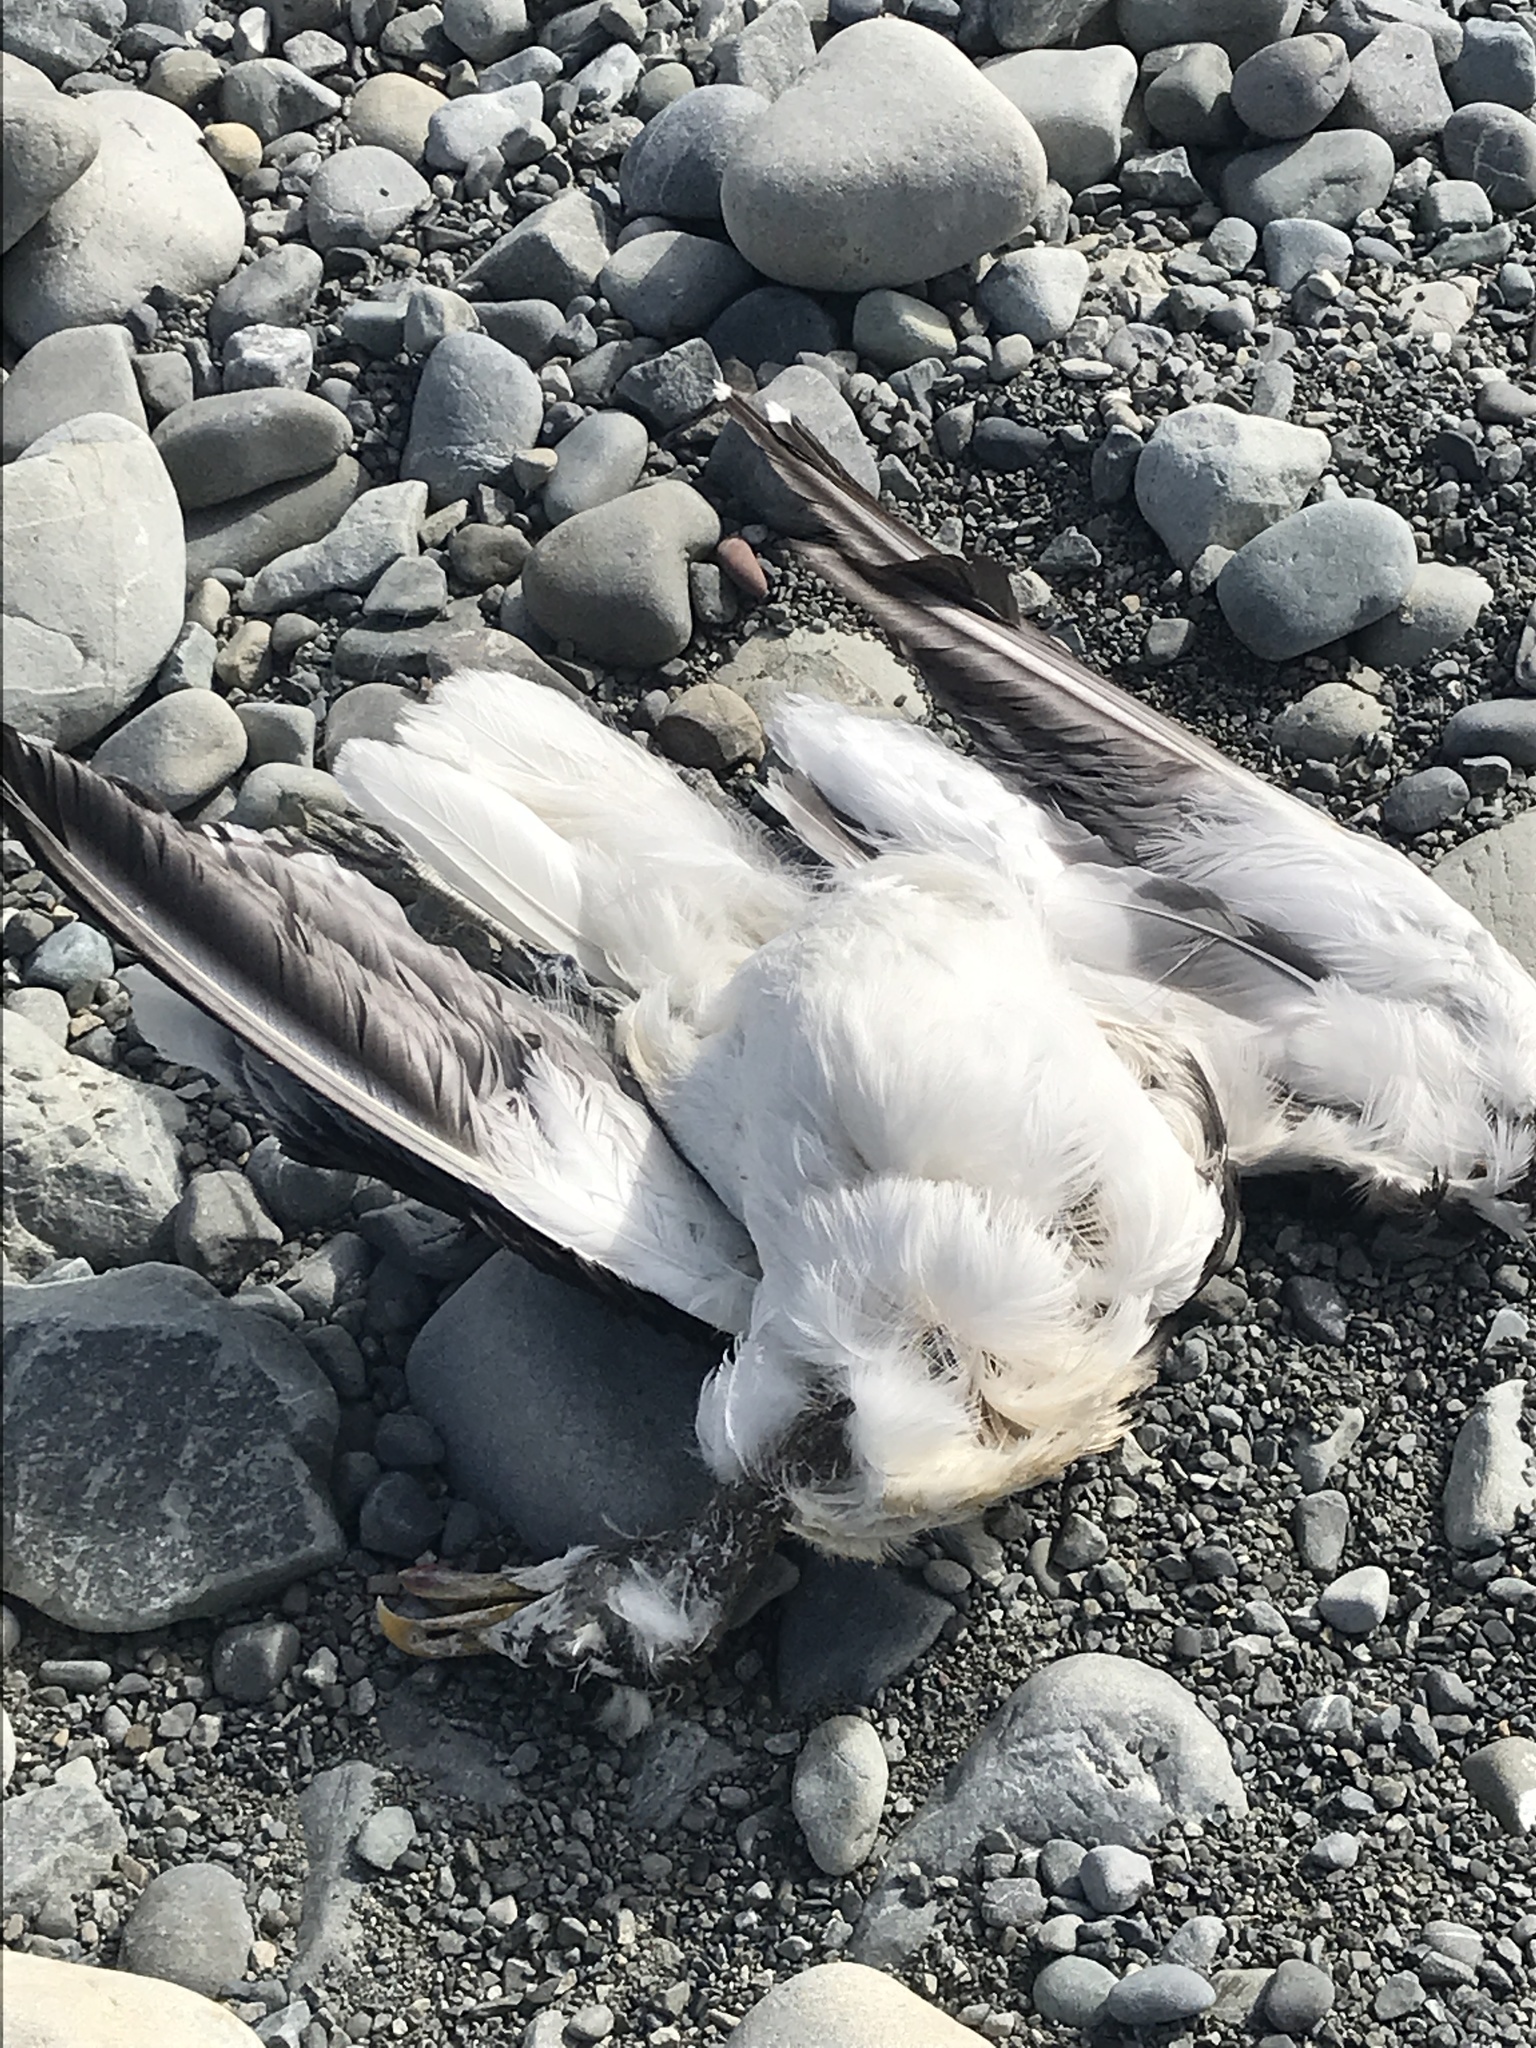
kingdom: Animalia
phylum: Chordata
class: Aves
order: Charadriiformes
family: Laridae
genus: Larus
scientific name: Larus dominicanus
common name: Kelp gull
